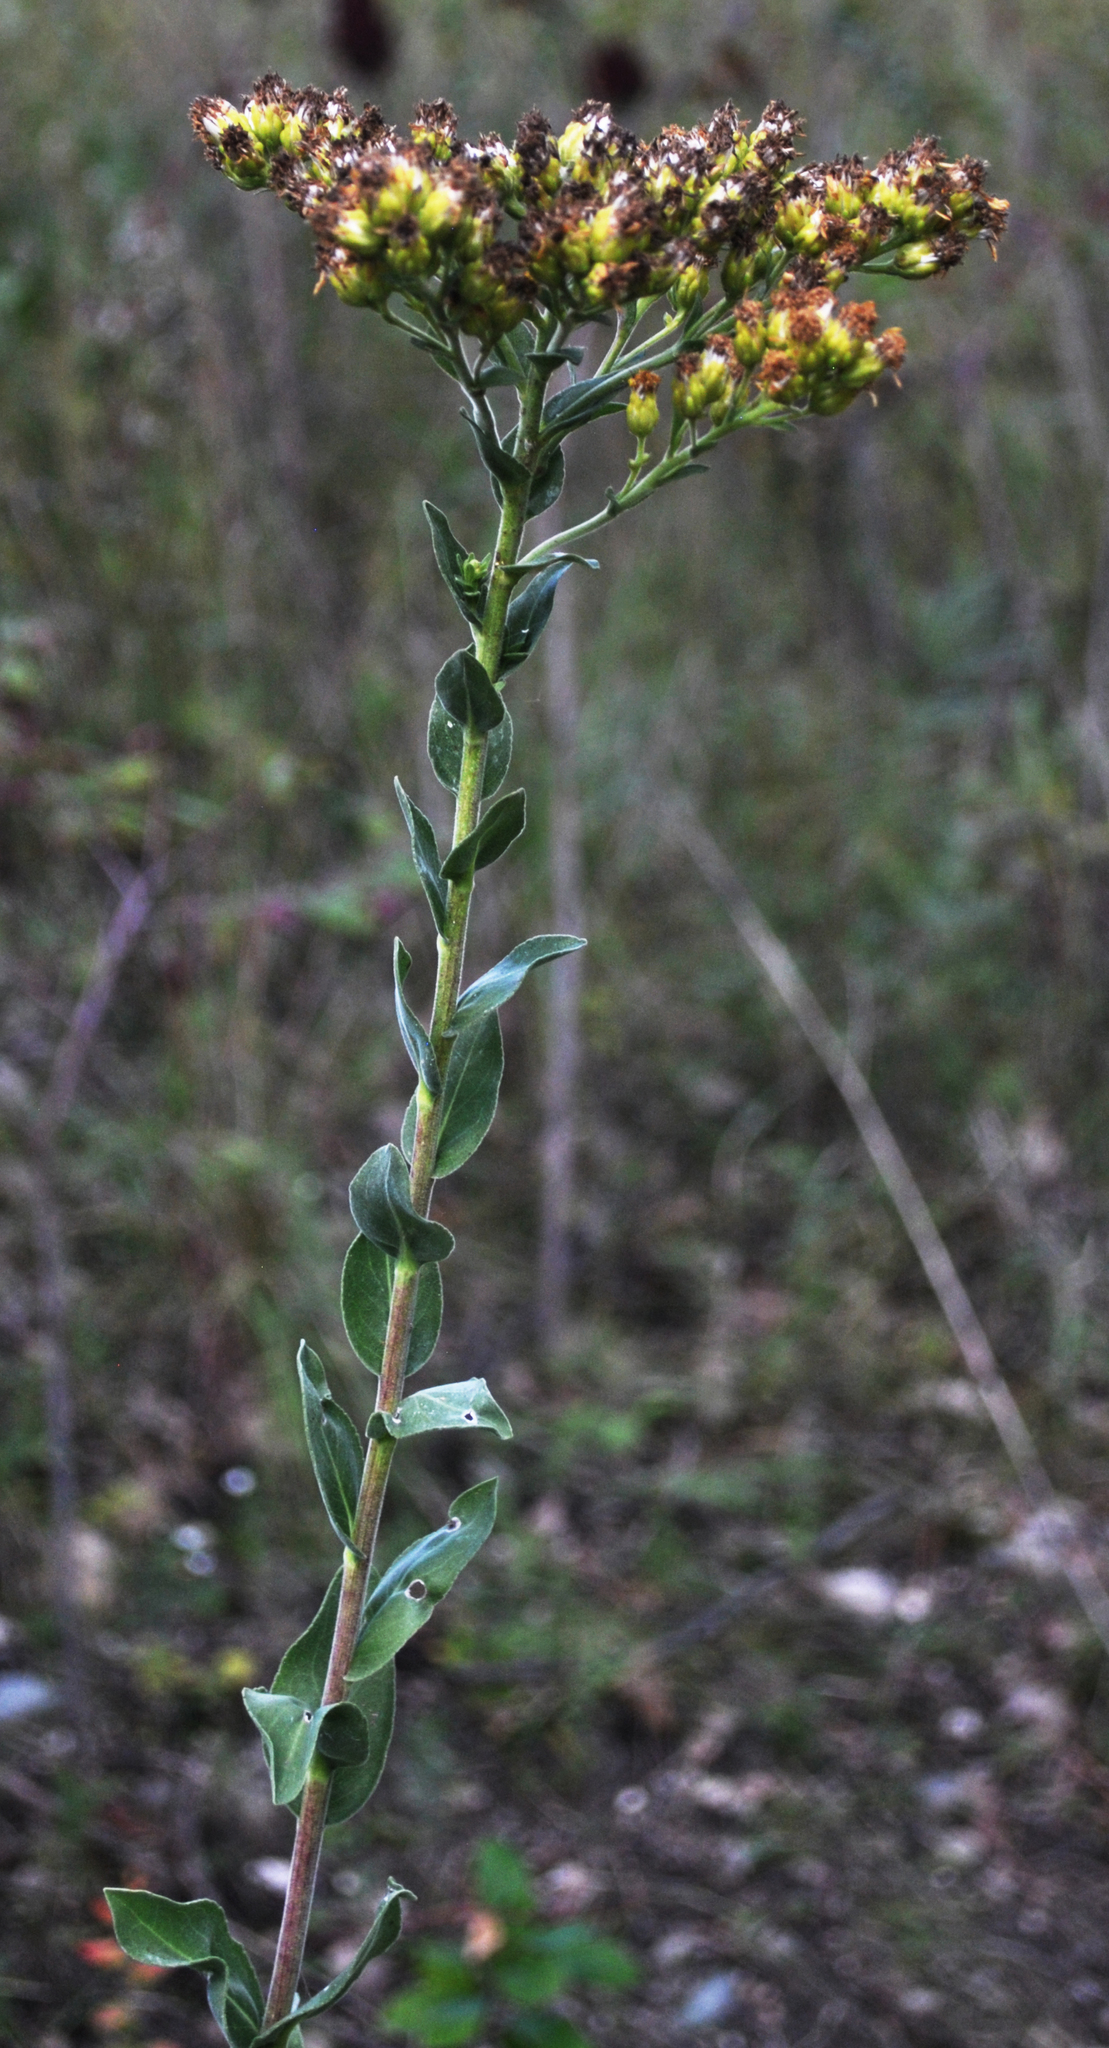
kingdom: Plantae
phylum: Tracheophyta
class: Magnoliopsida
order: Asterales
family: Asteraceae
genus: Solidago
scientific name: Solidago rigida
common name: Rigid goldenrod
